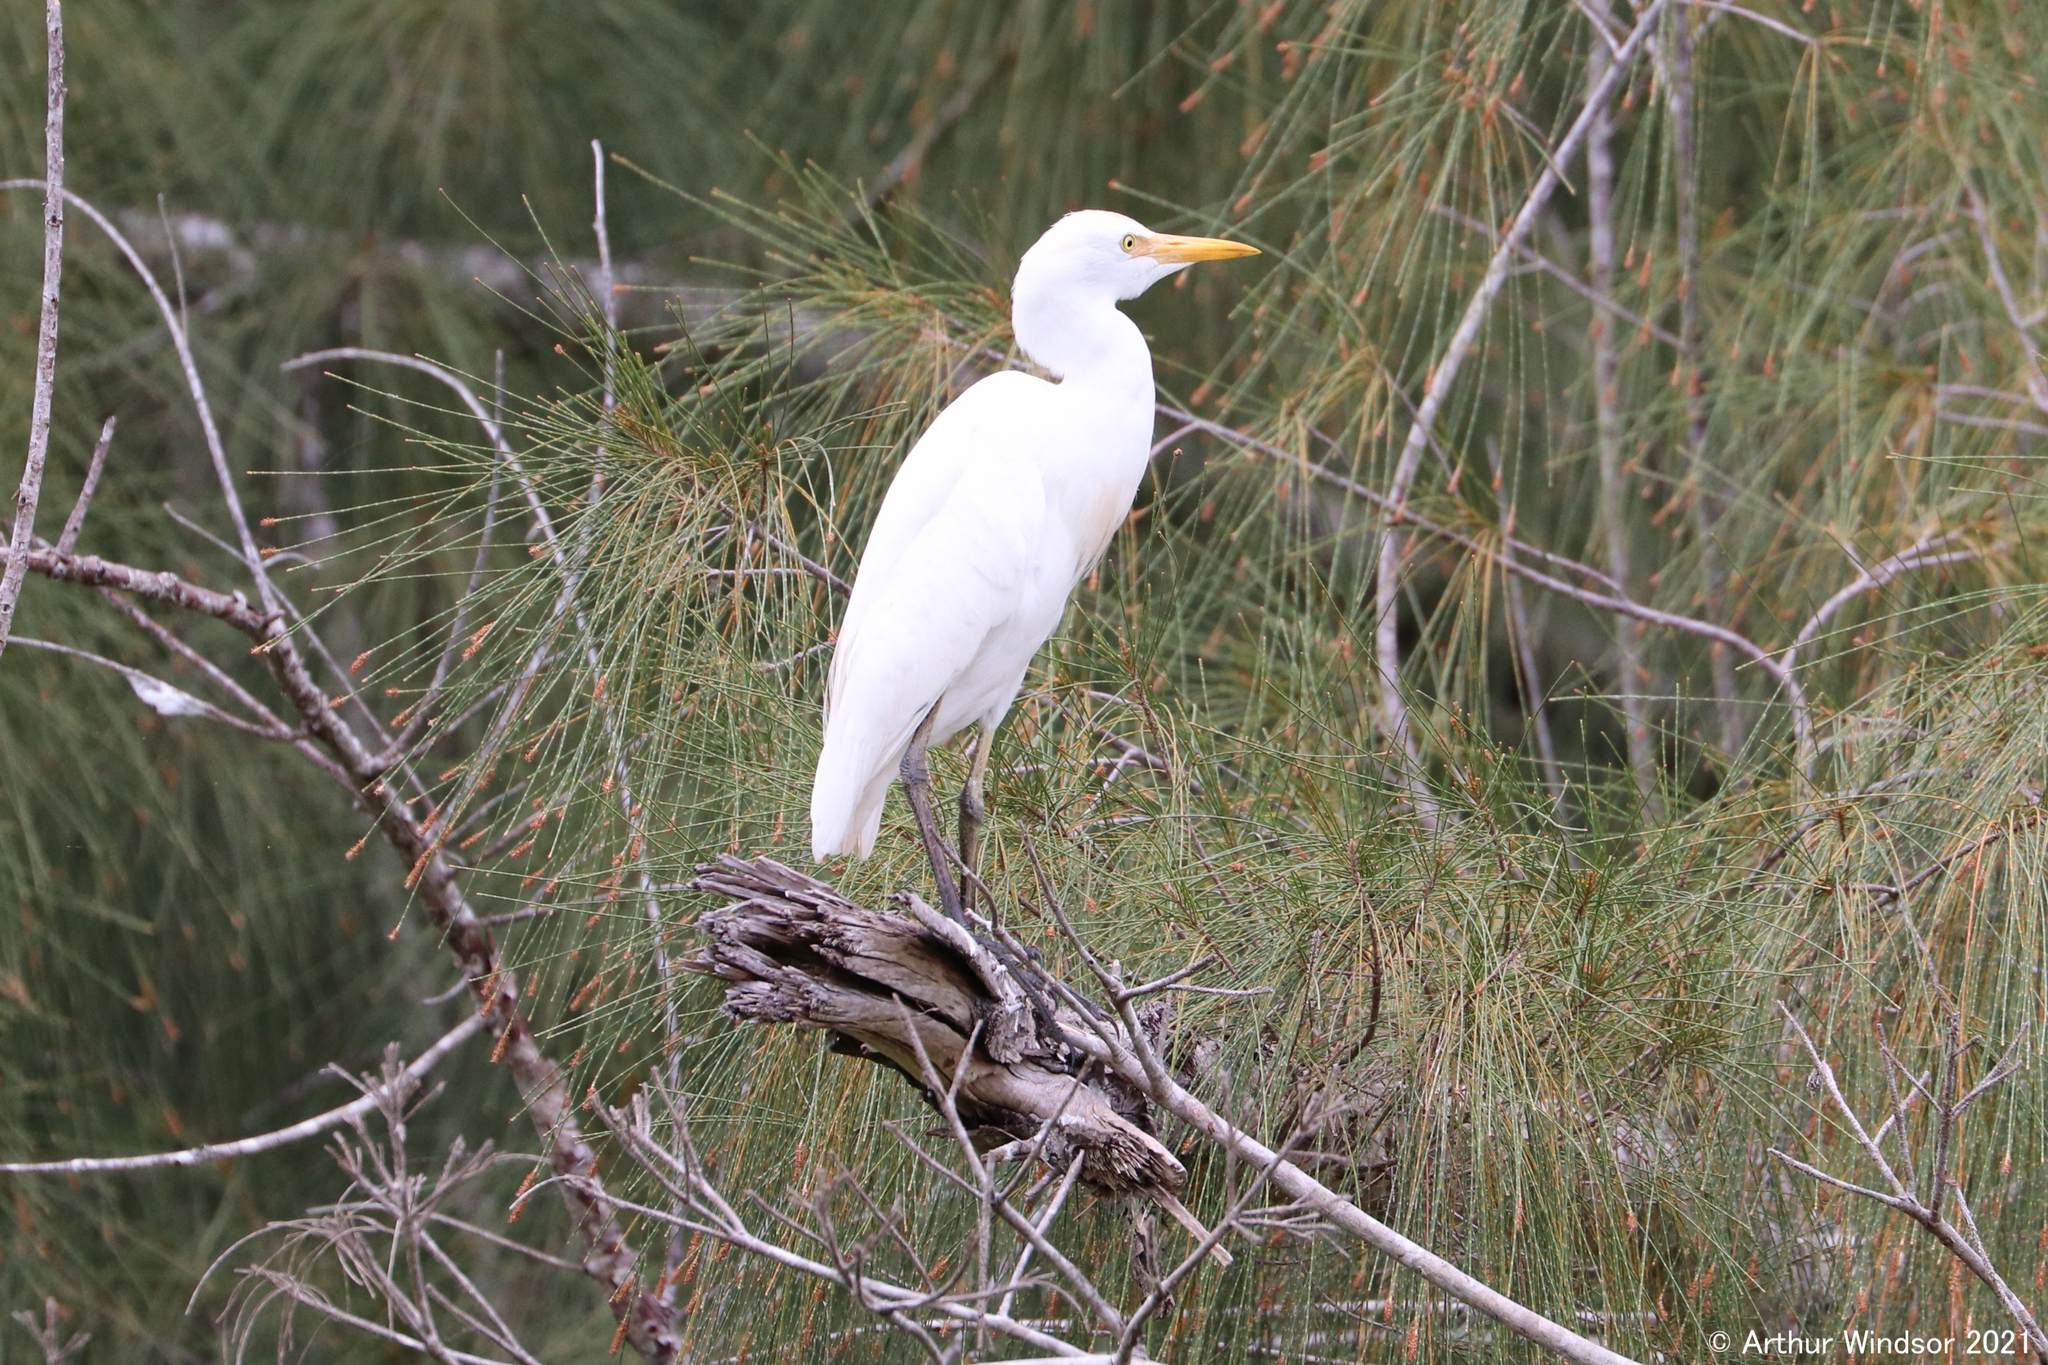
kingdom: Animalia
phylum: Chordata
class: Aves
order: Pelecaniformes
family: Ardeidae
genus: Bubulcus
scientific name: Bubulcus ibis
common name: Cattle egret
